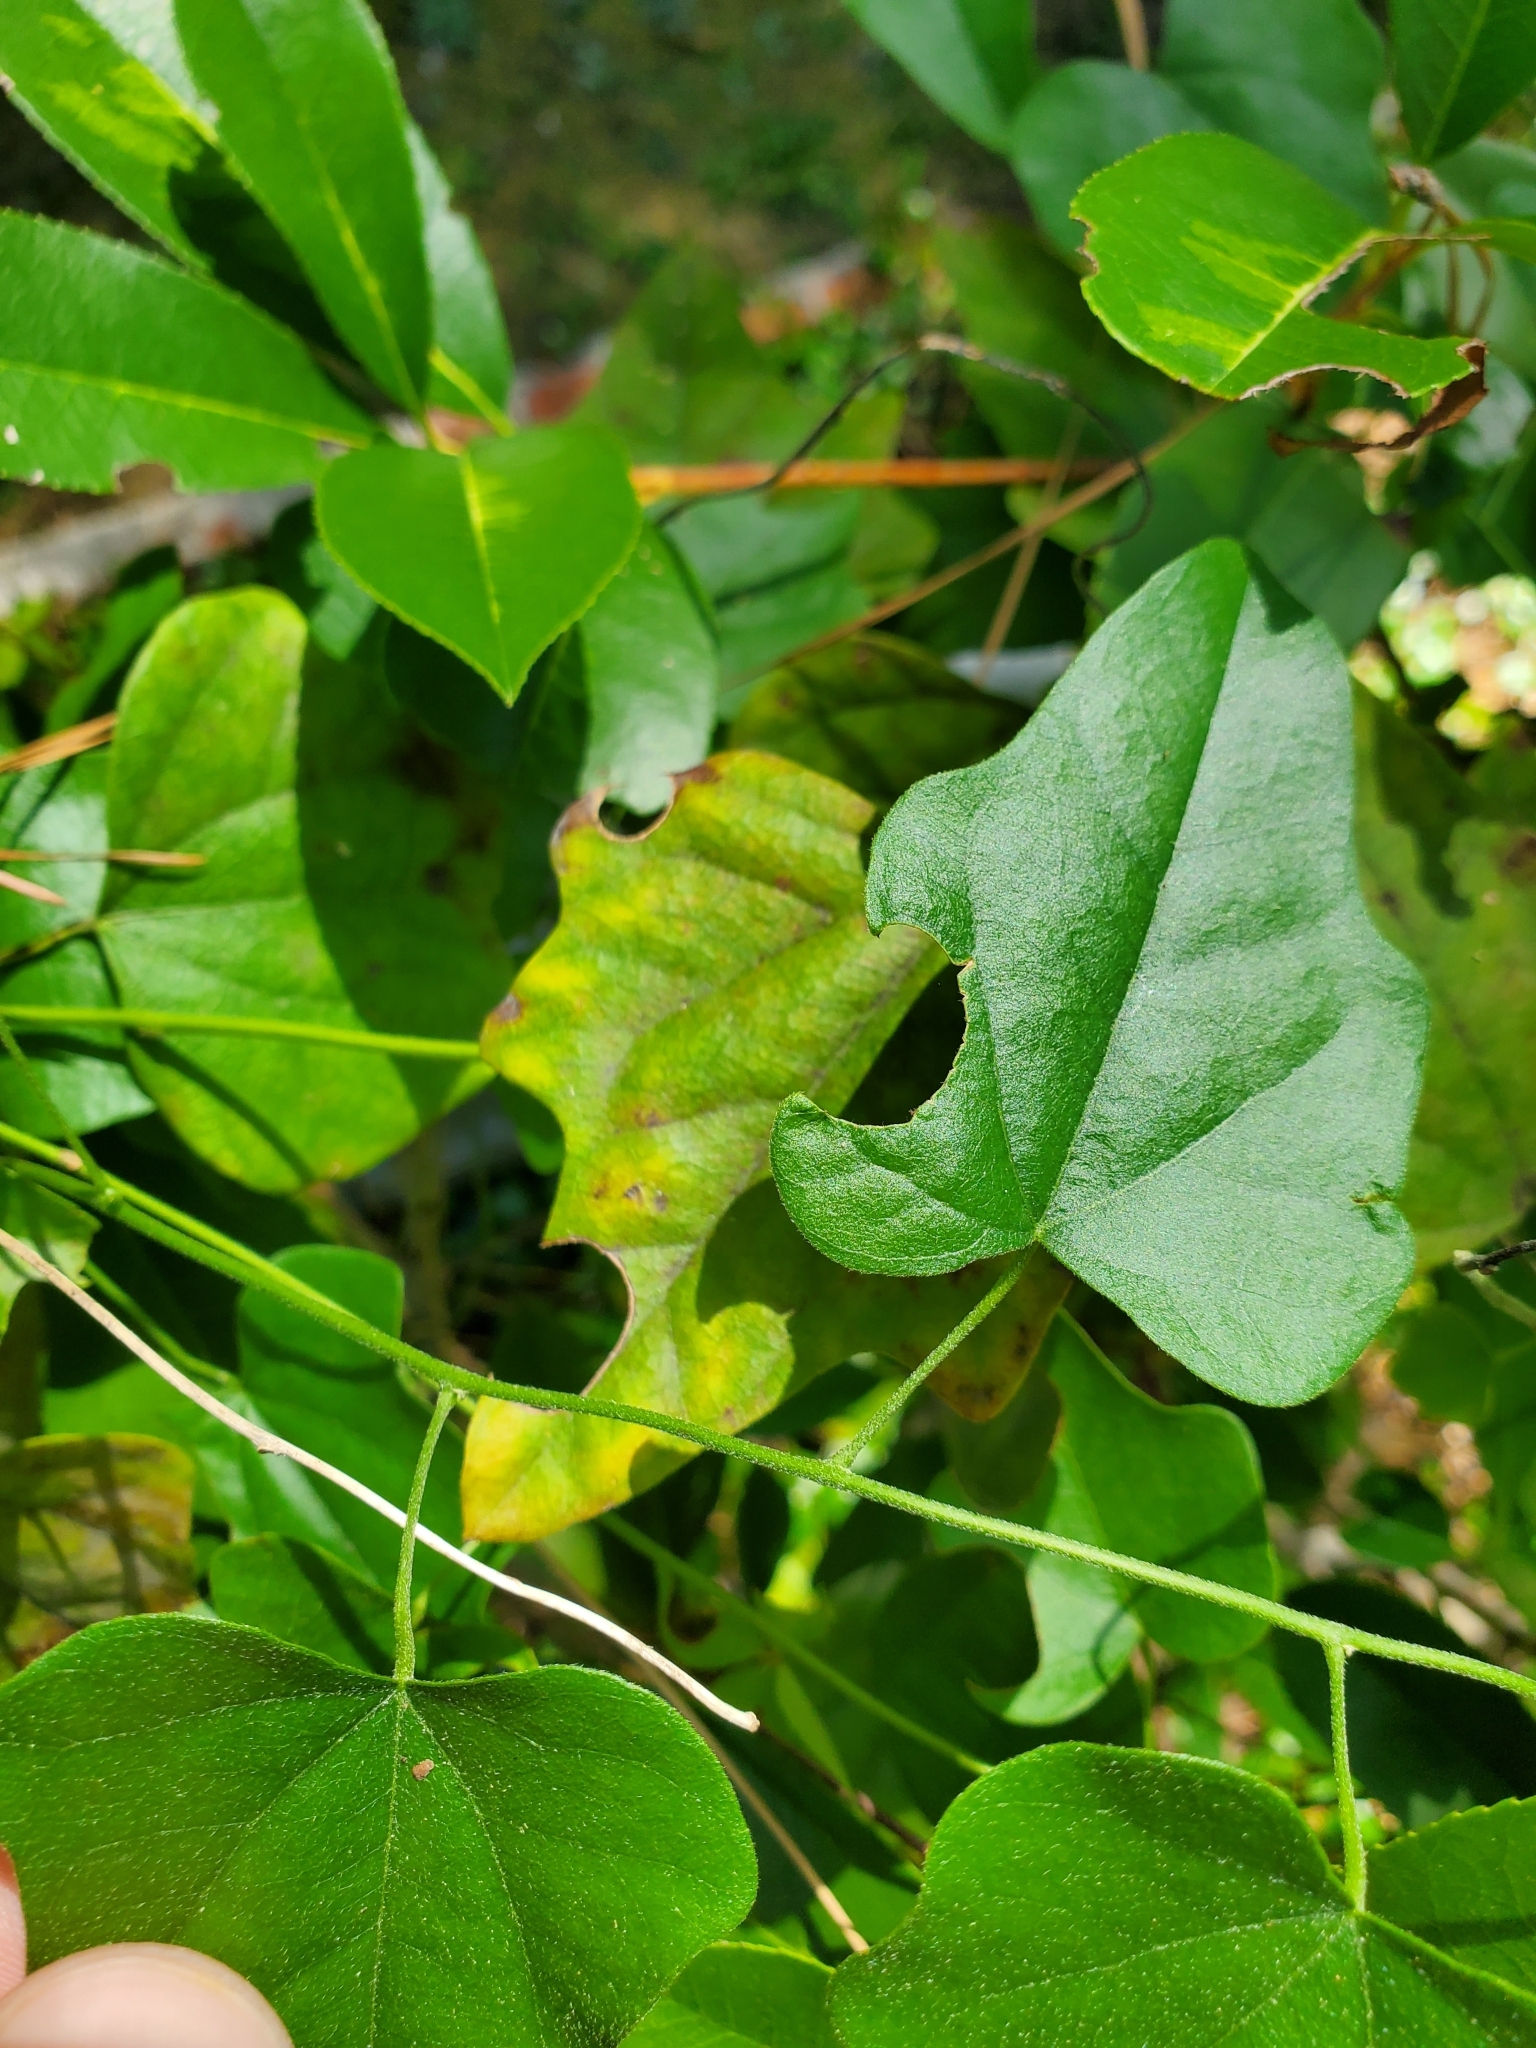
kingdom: Plantae
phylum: Tracheophyta
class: Magnoliopsida
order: Ranunculales
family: Menispermaceae
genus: Cocculus
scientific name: Cocculus carolinus
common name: Carolina moonseed
